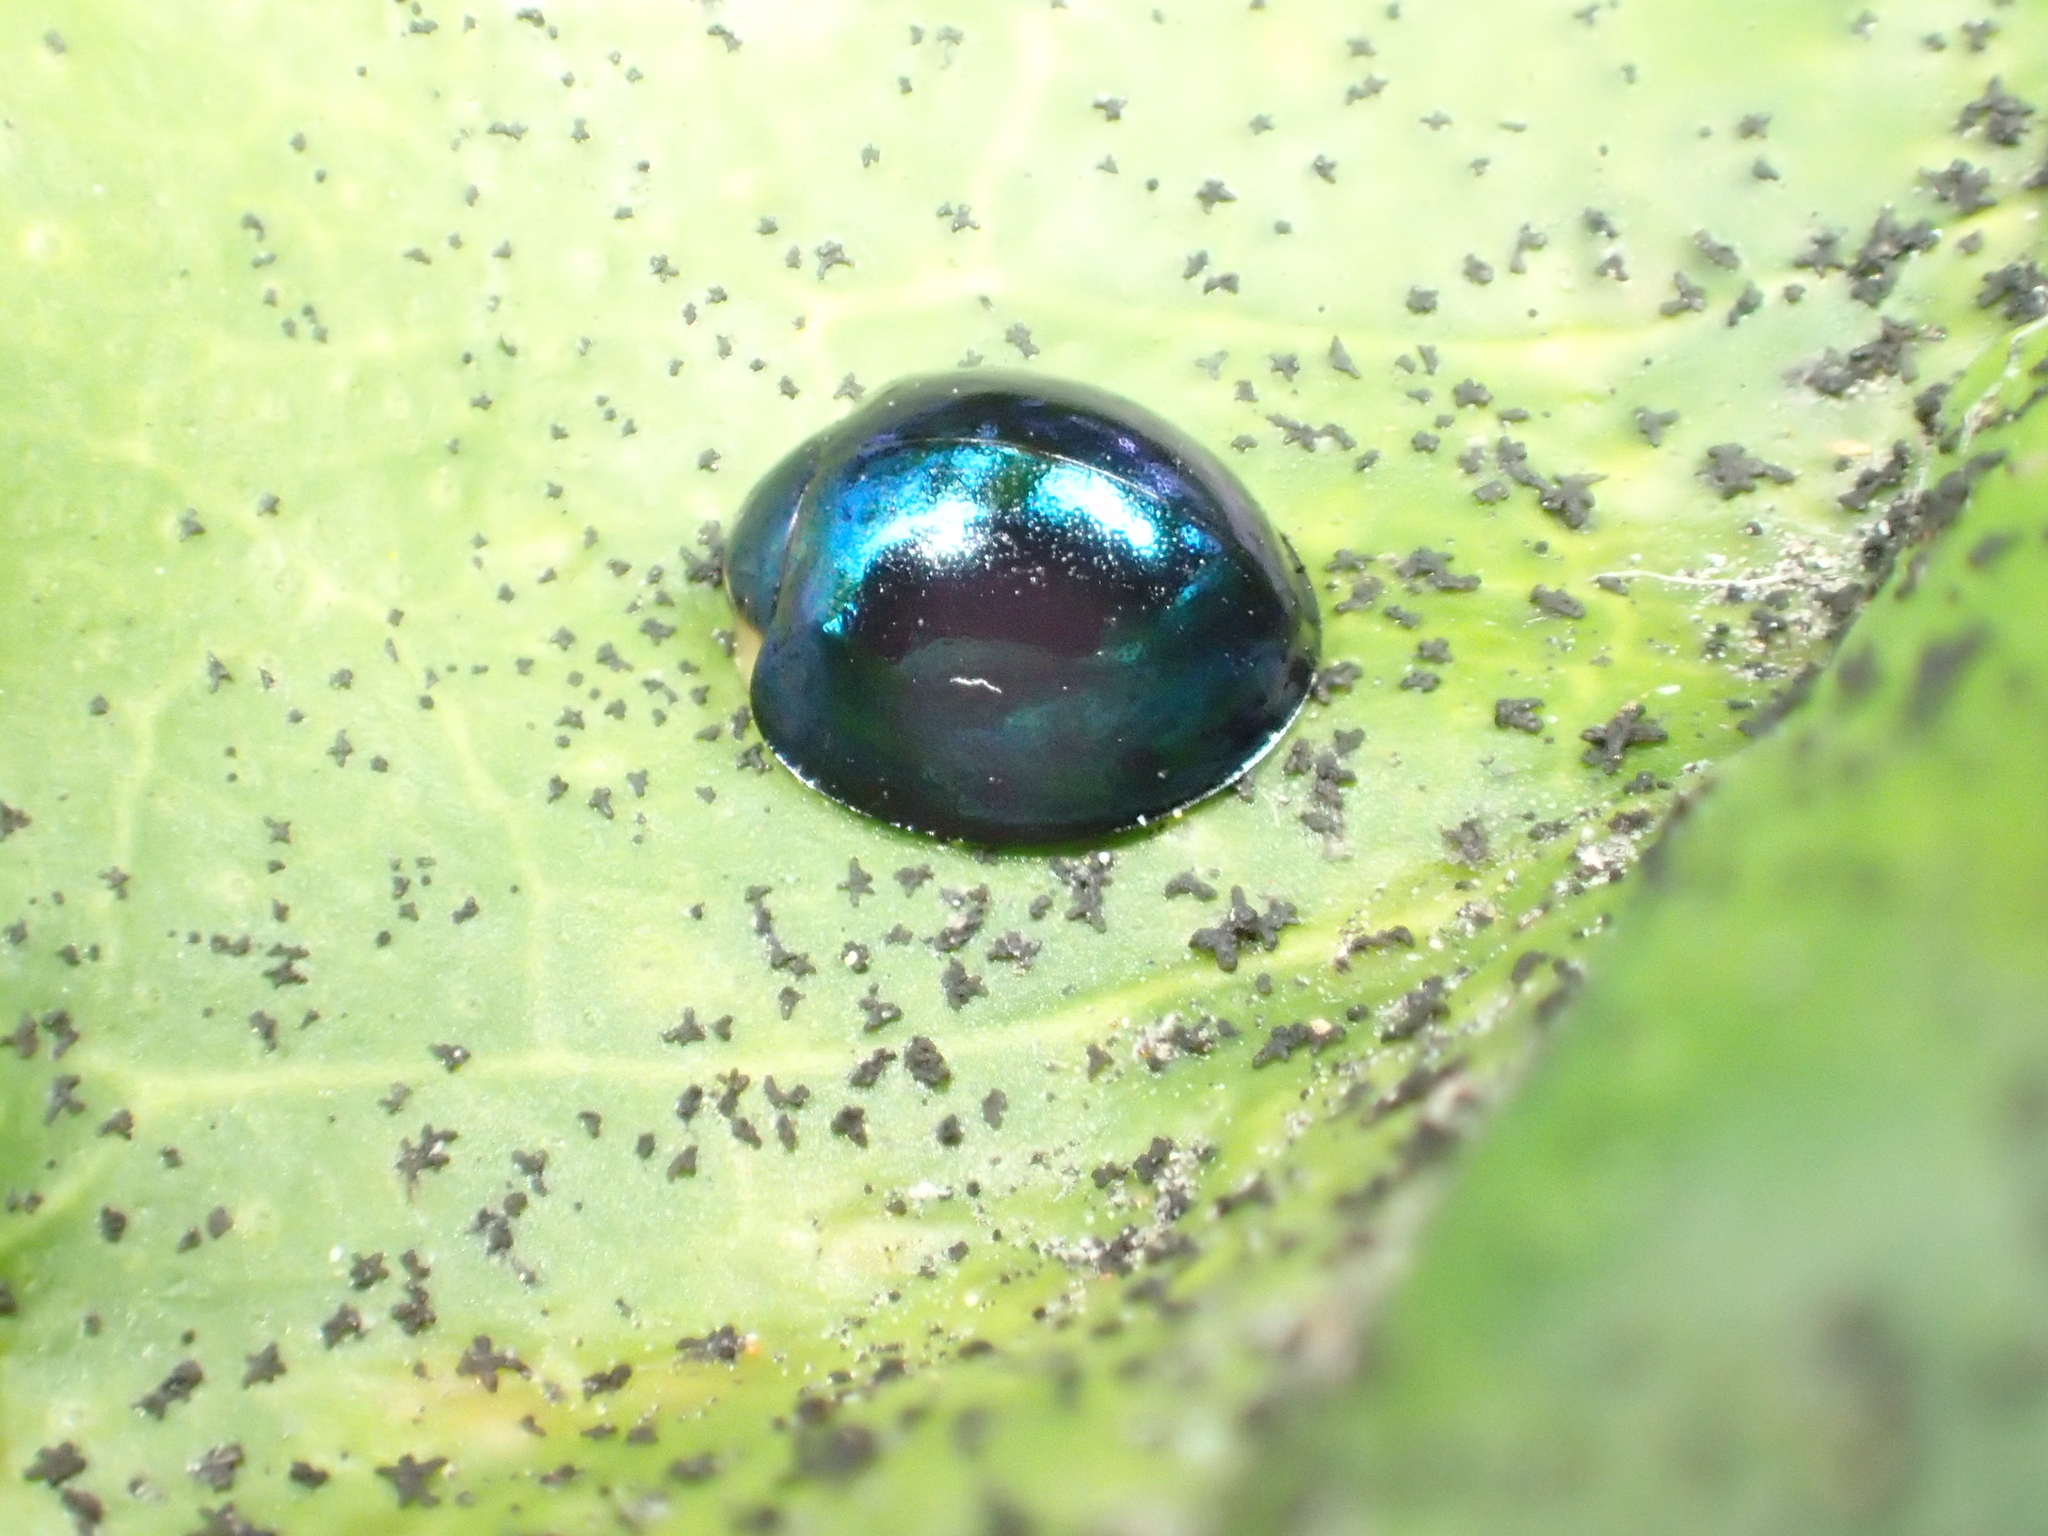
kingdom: Animalia
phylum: Arthropoda
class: Insecta
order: Coleoptera
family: Coccinellidae
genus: Halmus
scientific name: Halmus chalybeus
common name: Steel blue ladybird beetle
